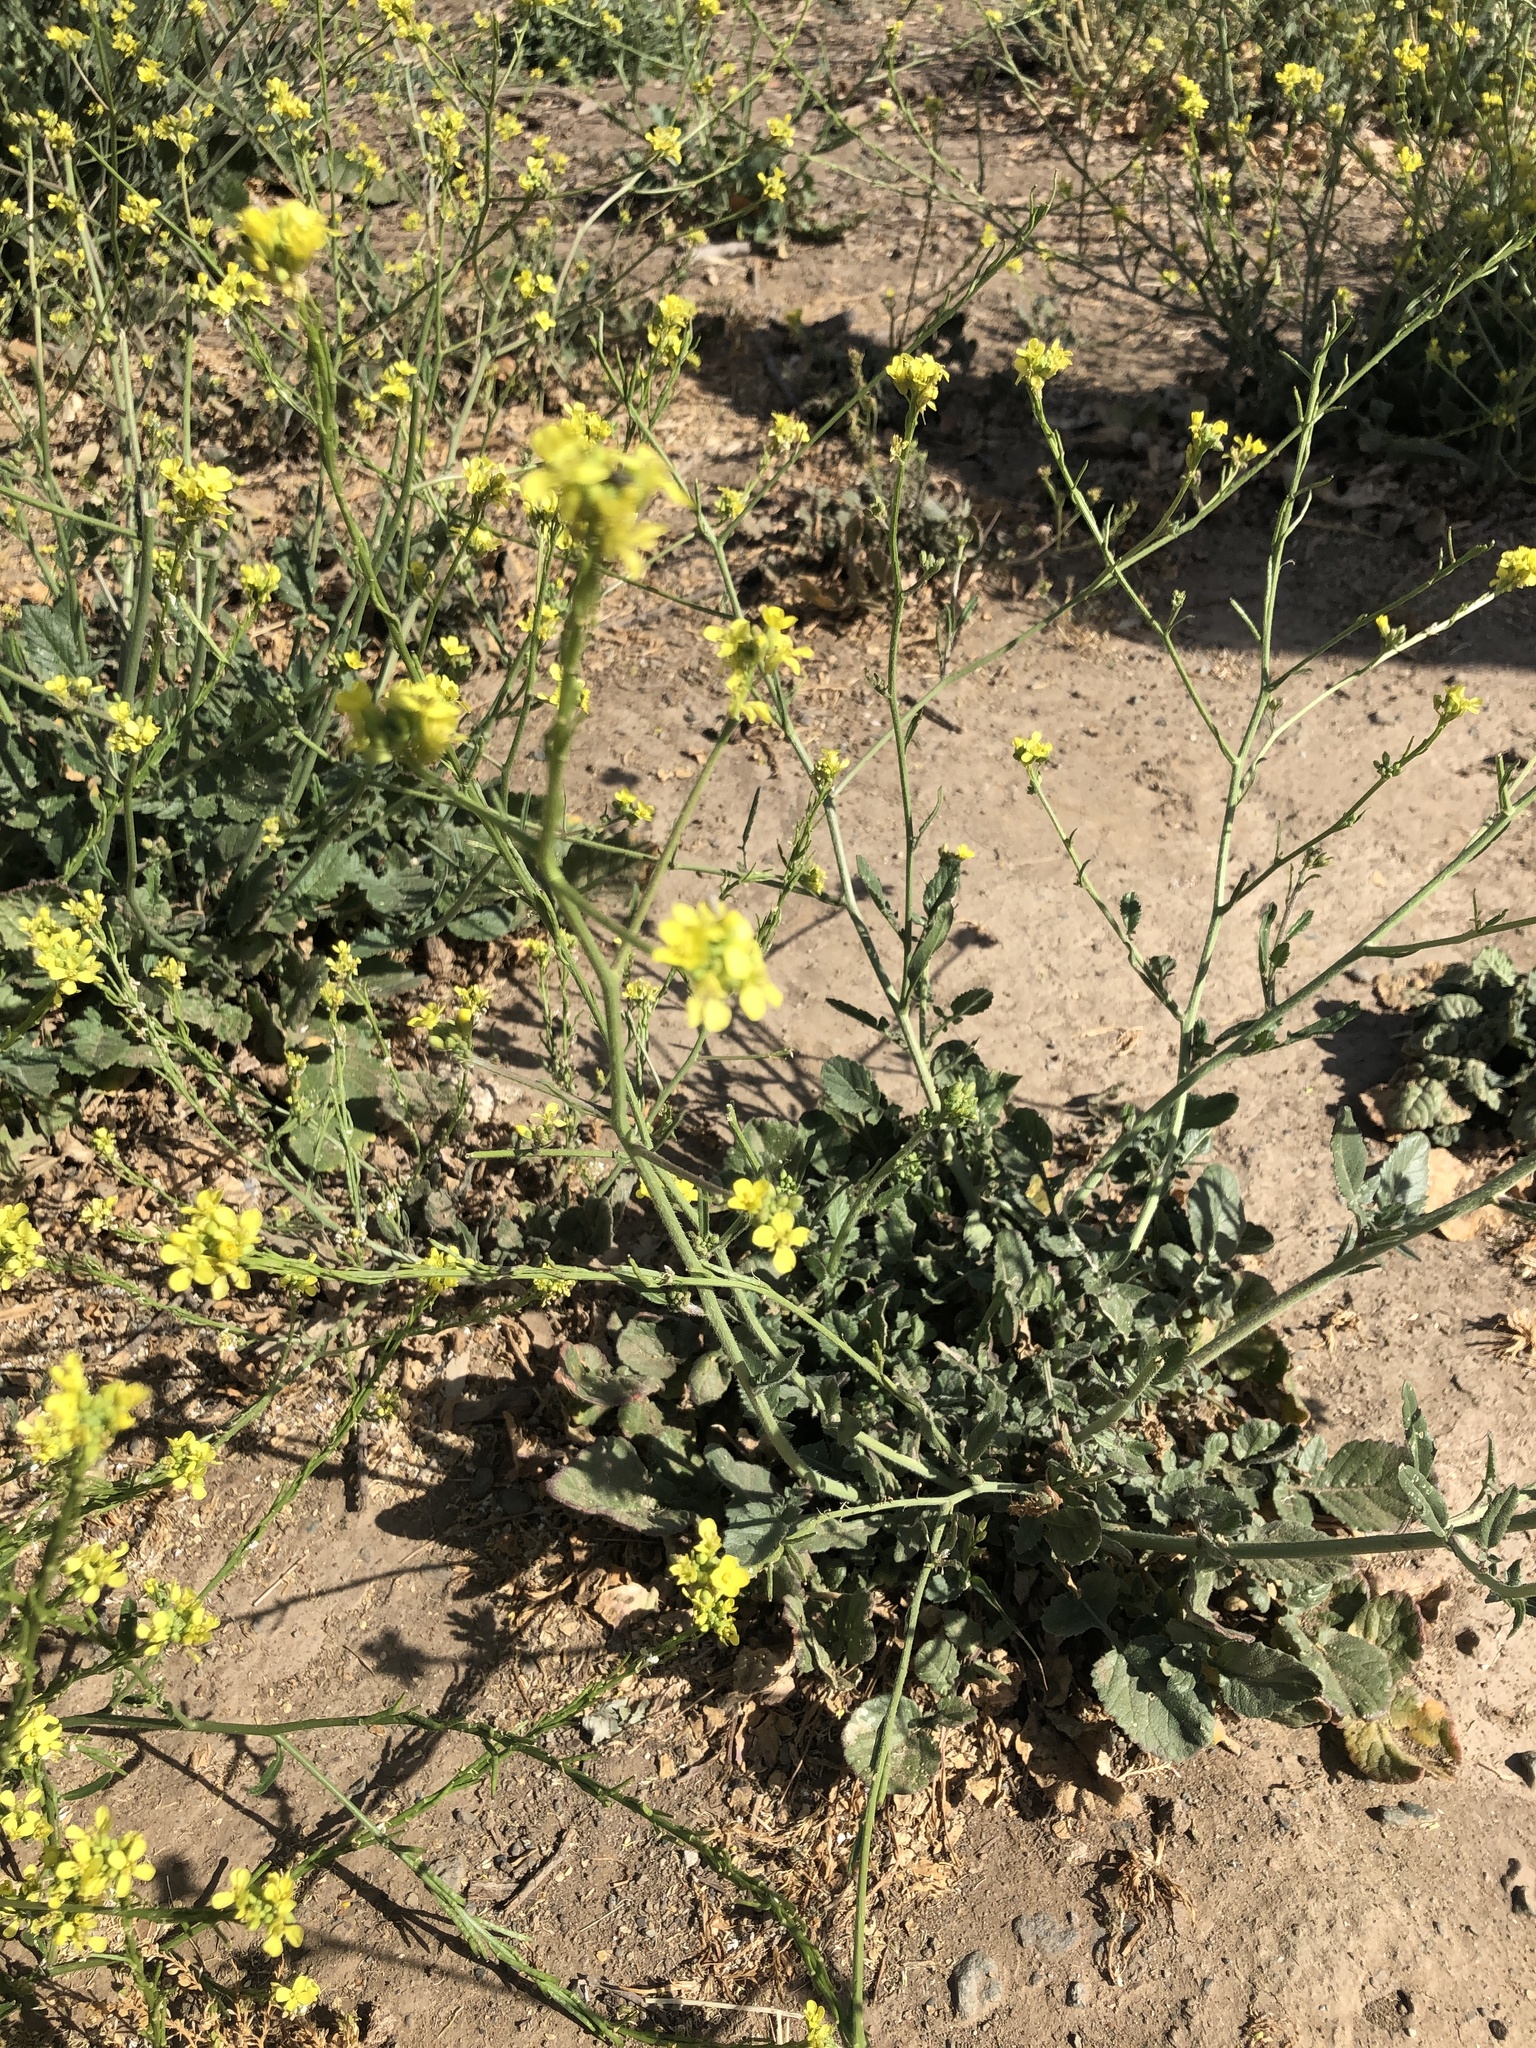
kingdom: Plantae
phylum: Tracheophyta
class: Magnoliopsida
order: Brassicales
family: Brassicaceae
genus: Hirschfeldia
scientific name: Hirschfeldia incana
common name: Hoary mustard
